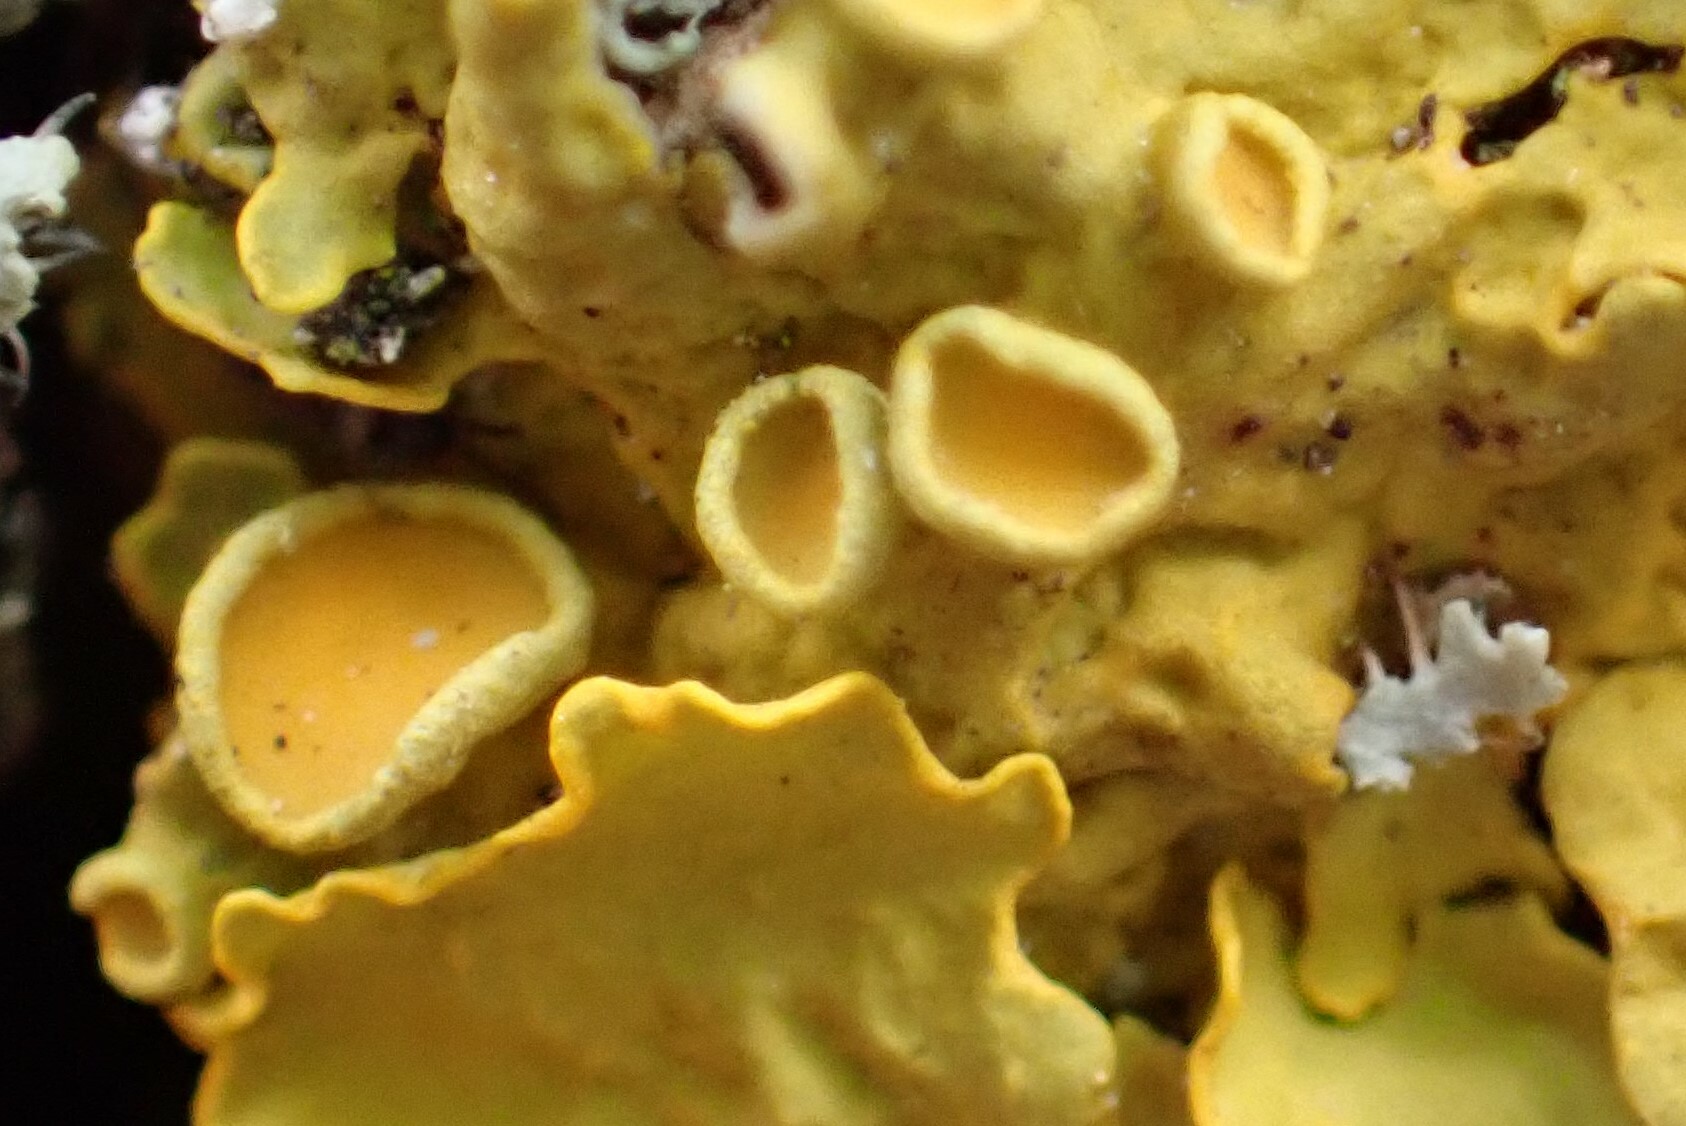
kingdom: Fungi
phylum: Ascomycota
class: Lecanoromycetes
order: Teloschistales
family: Teloschistaceae
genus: Xanthoria
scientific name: Xanthoria parietina
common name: Common orange lichen
